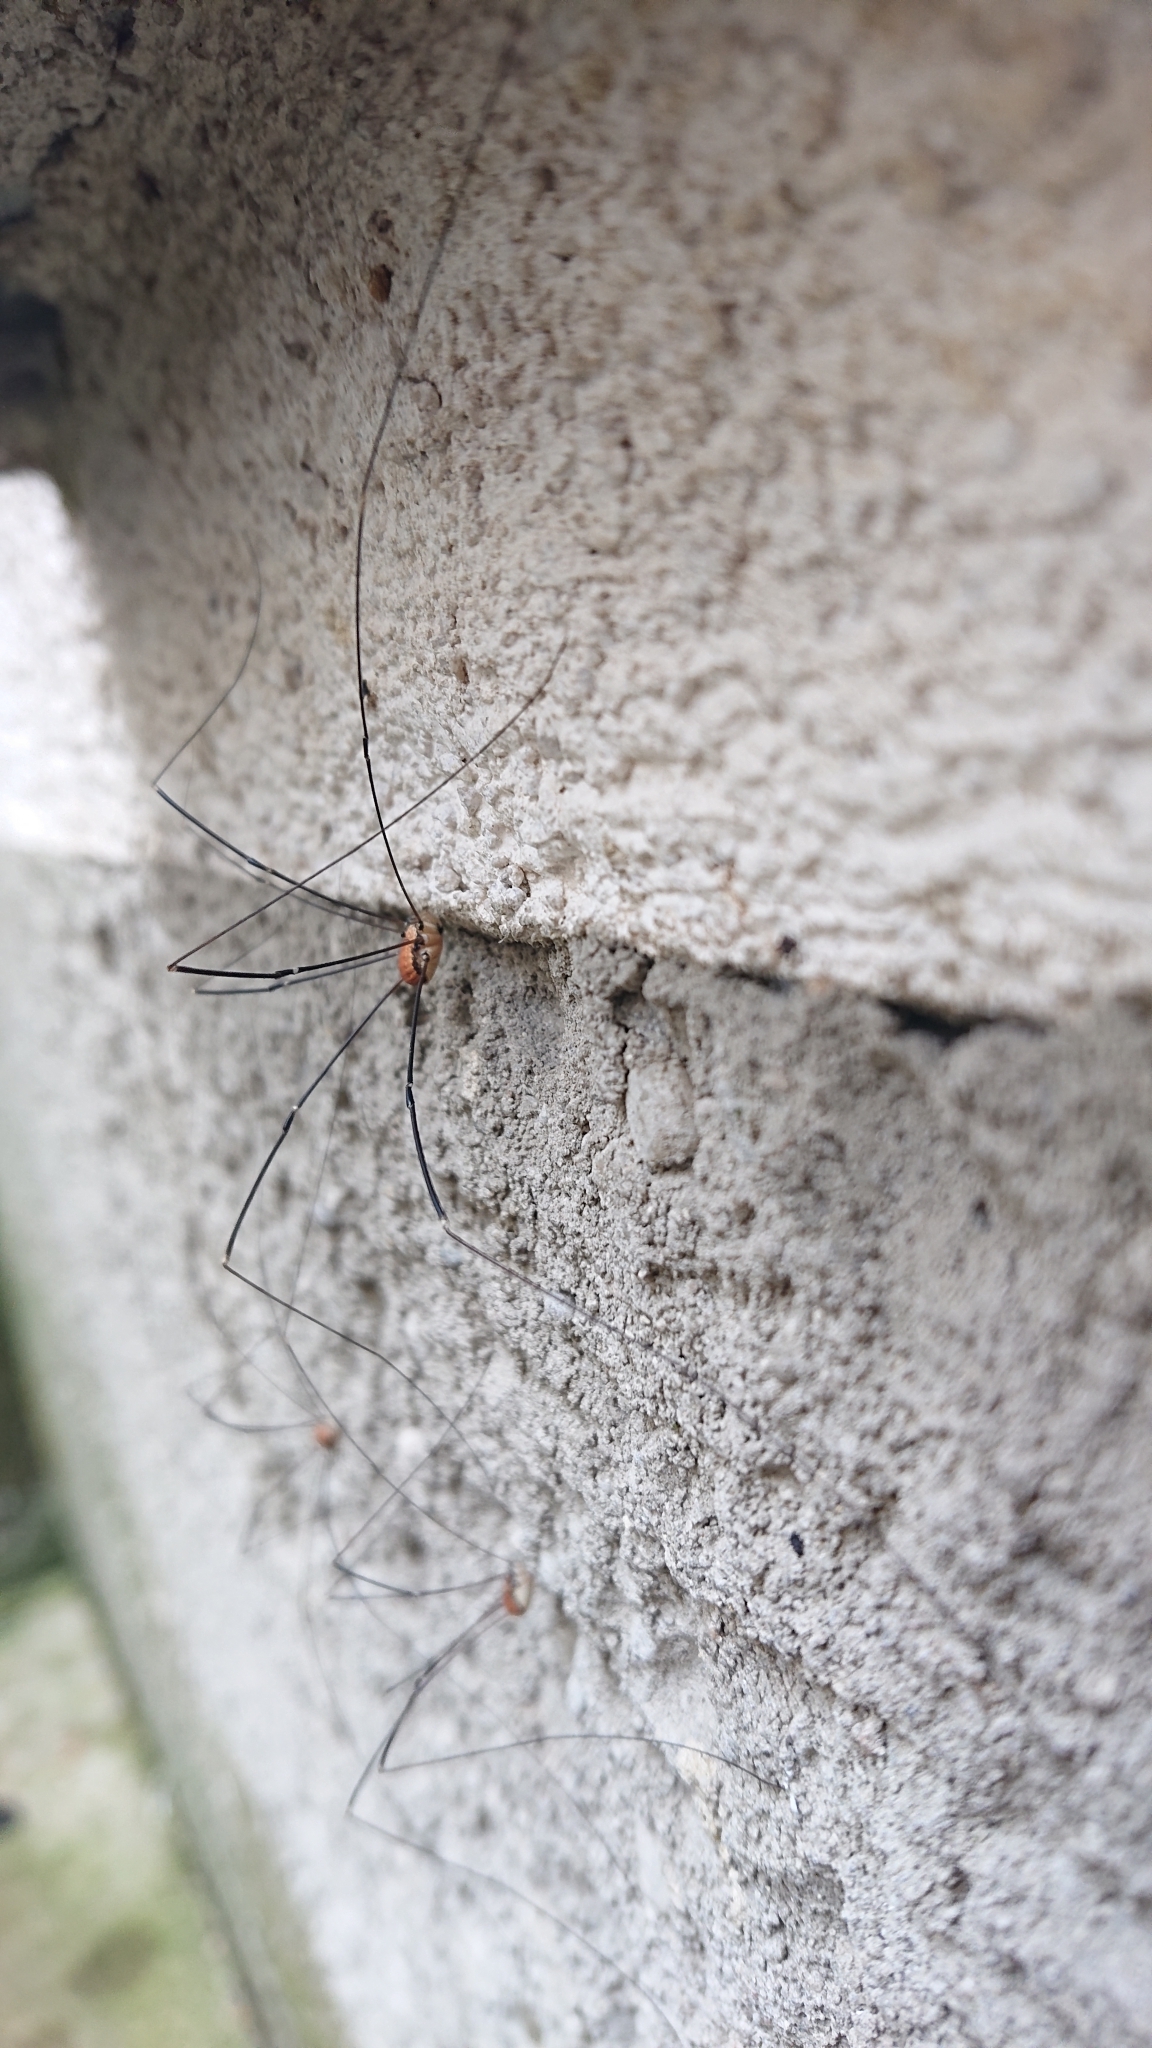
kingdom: Animalia
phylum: Arthropoda
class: Arachnida
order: Opiliones
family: Sclerosomatidae
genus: Leiobunum
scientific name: Leiobunum limbatum
